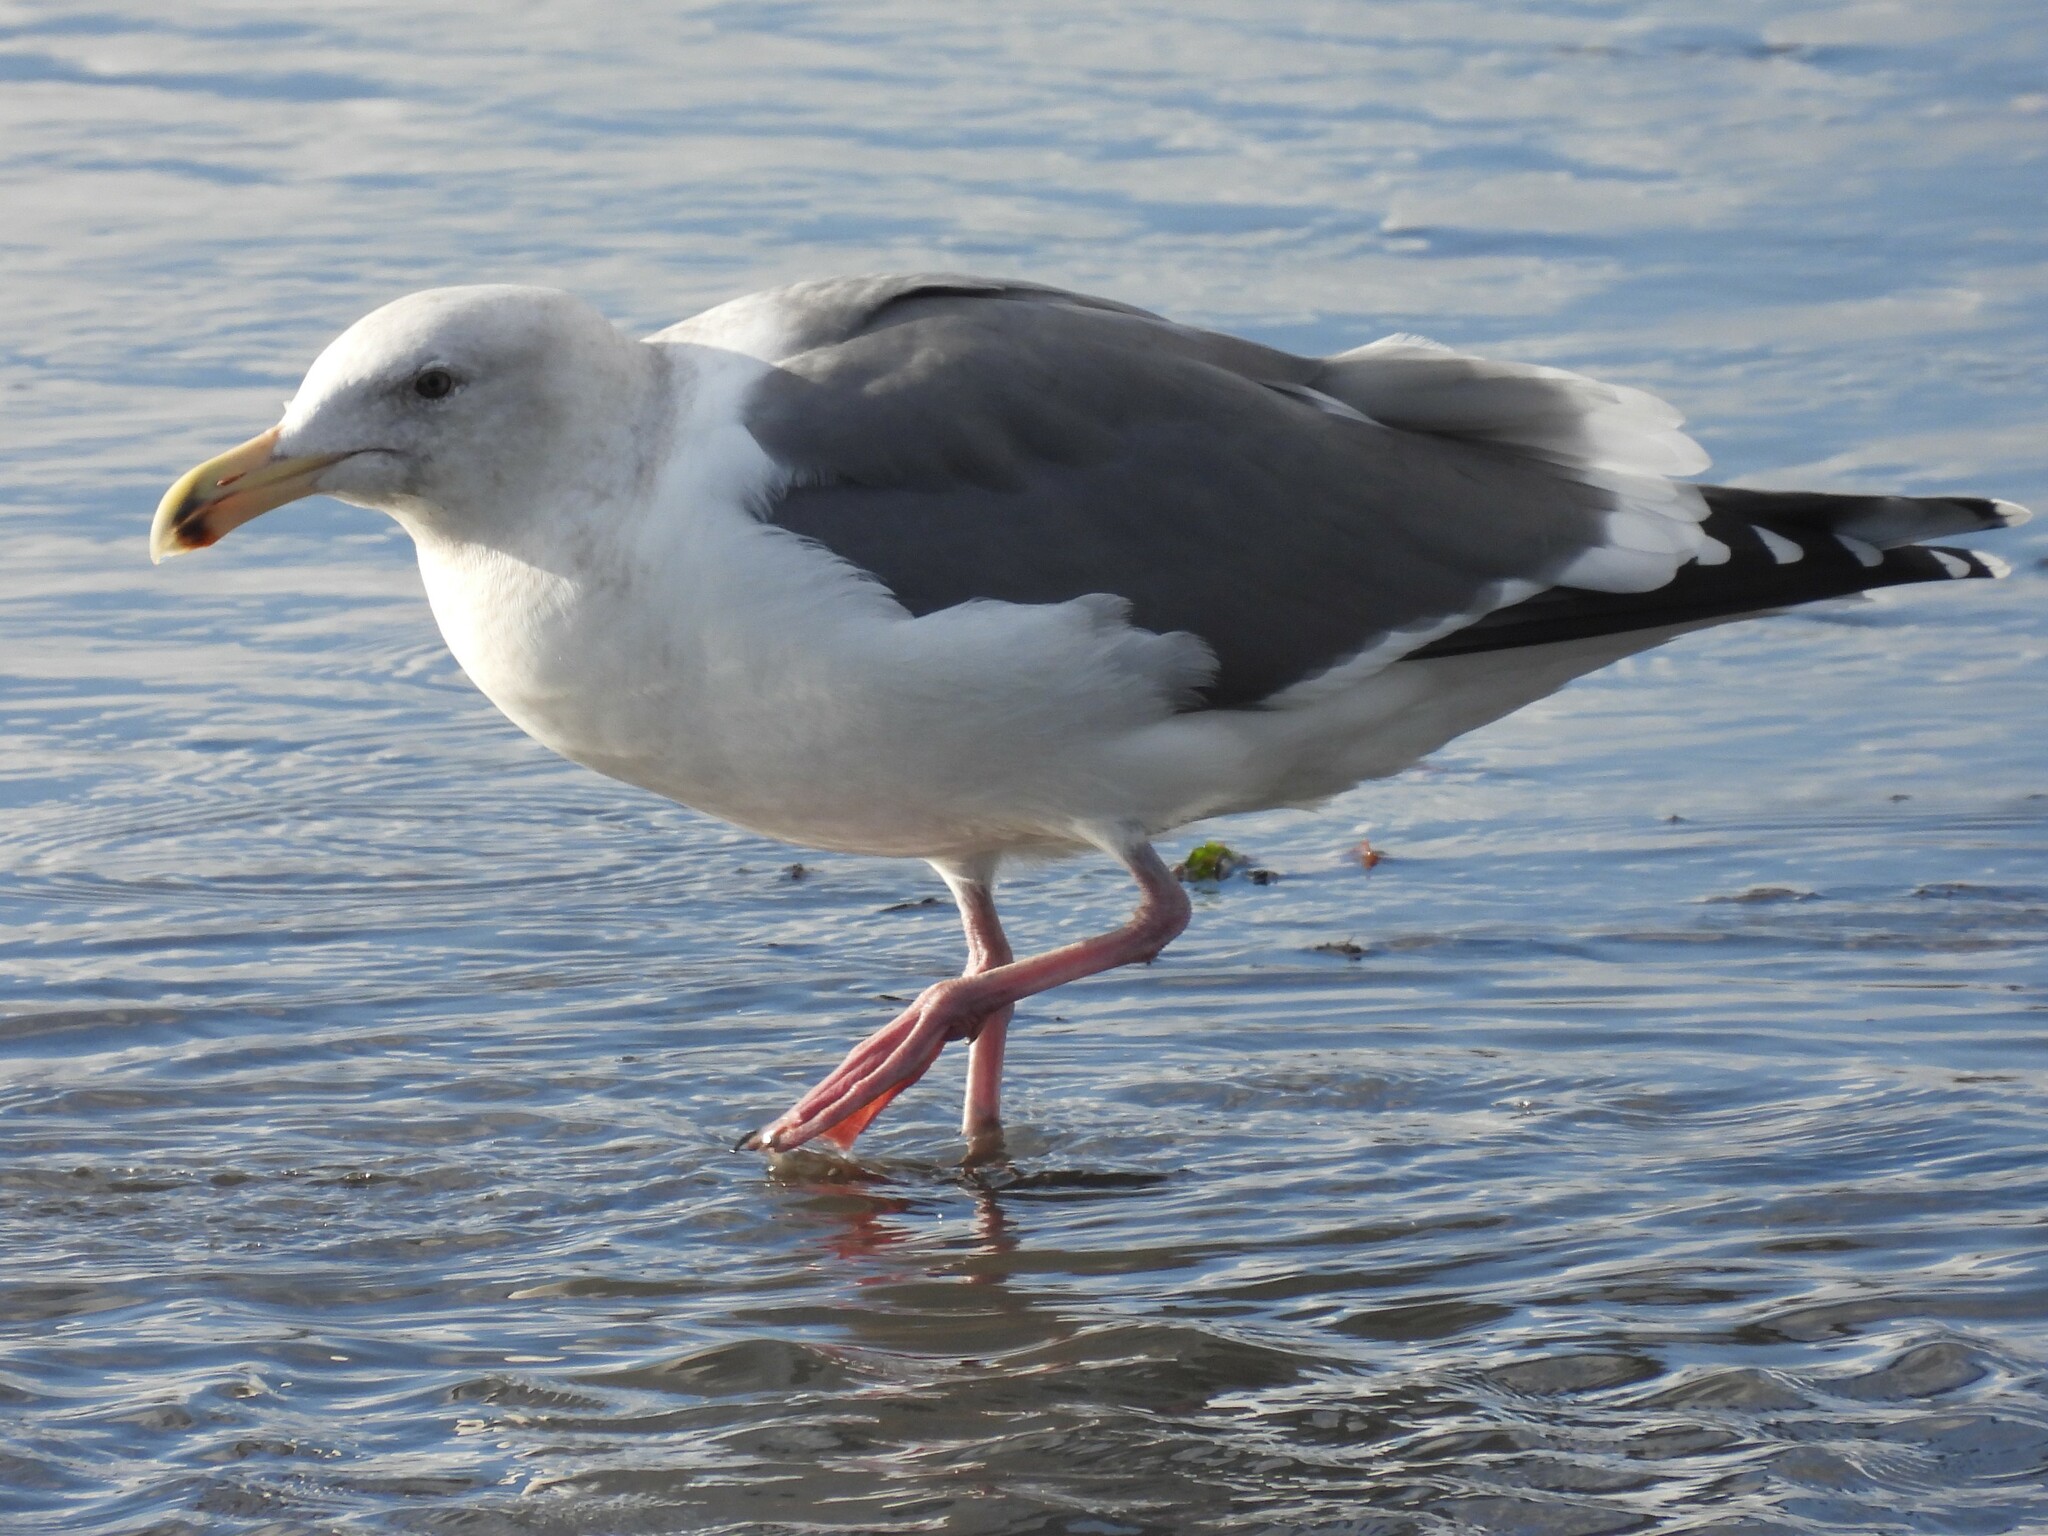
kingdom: Animalia
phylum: Chordata
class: Aves
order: Charadriiformes
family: Laridae
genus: Larus
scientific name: Larus occidentalis
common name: Western gull
